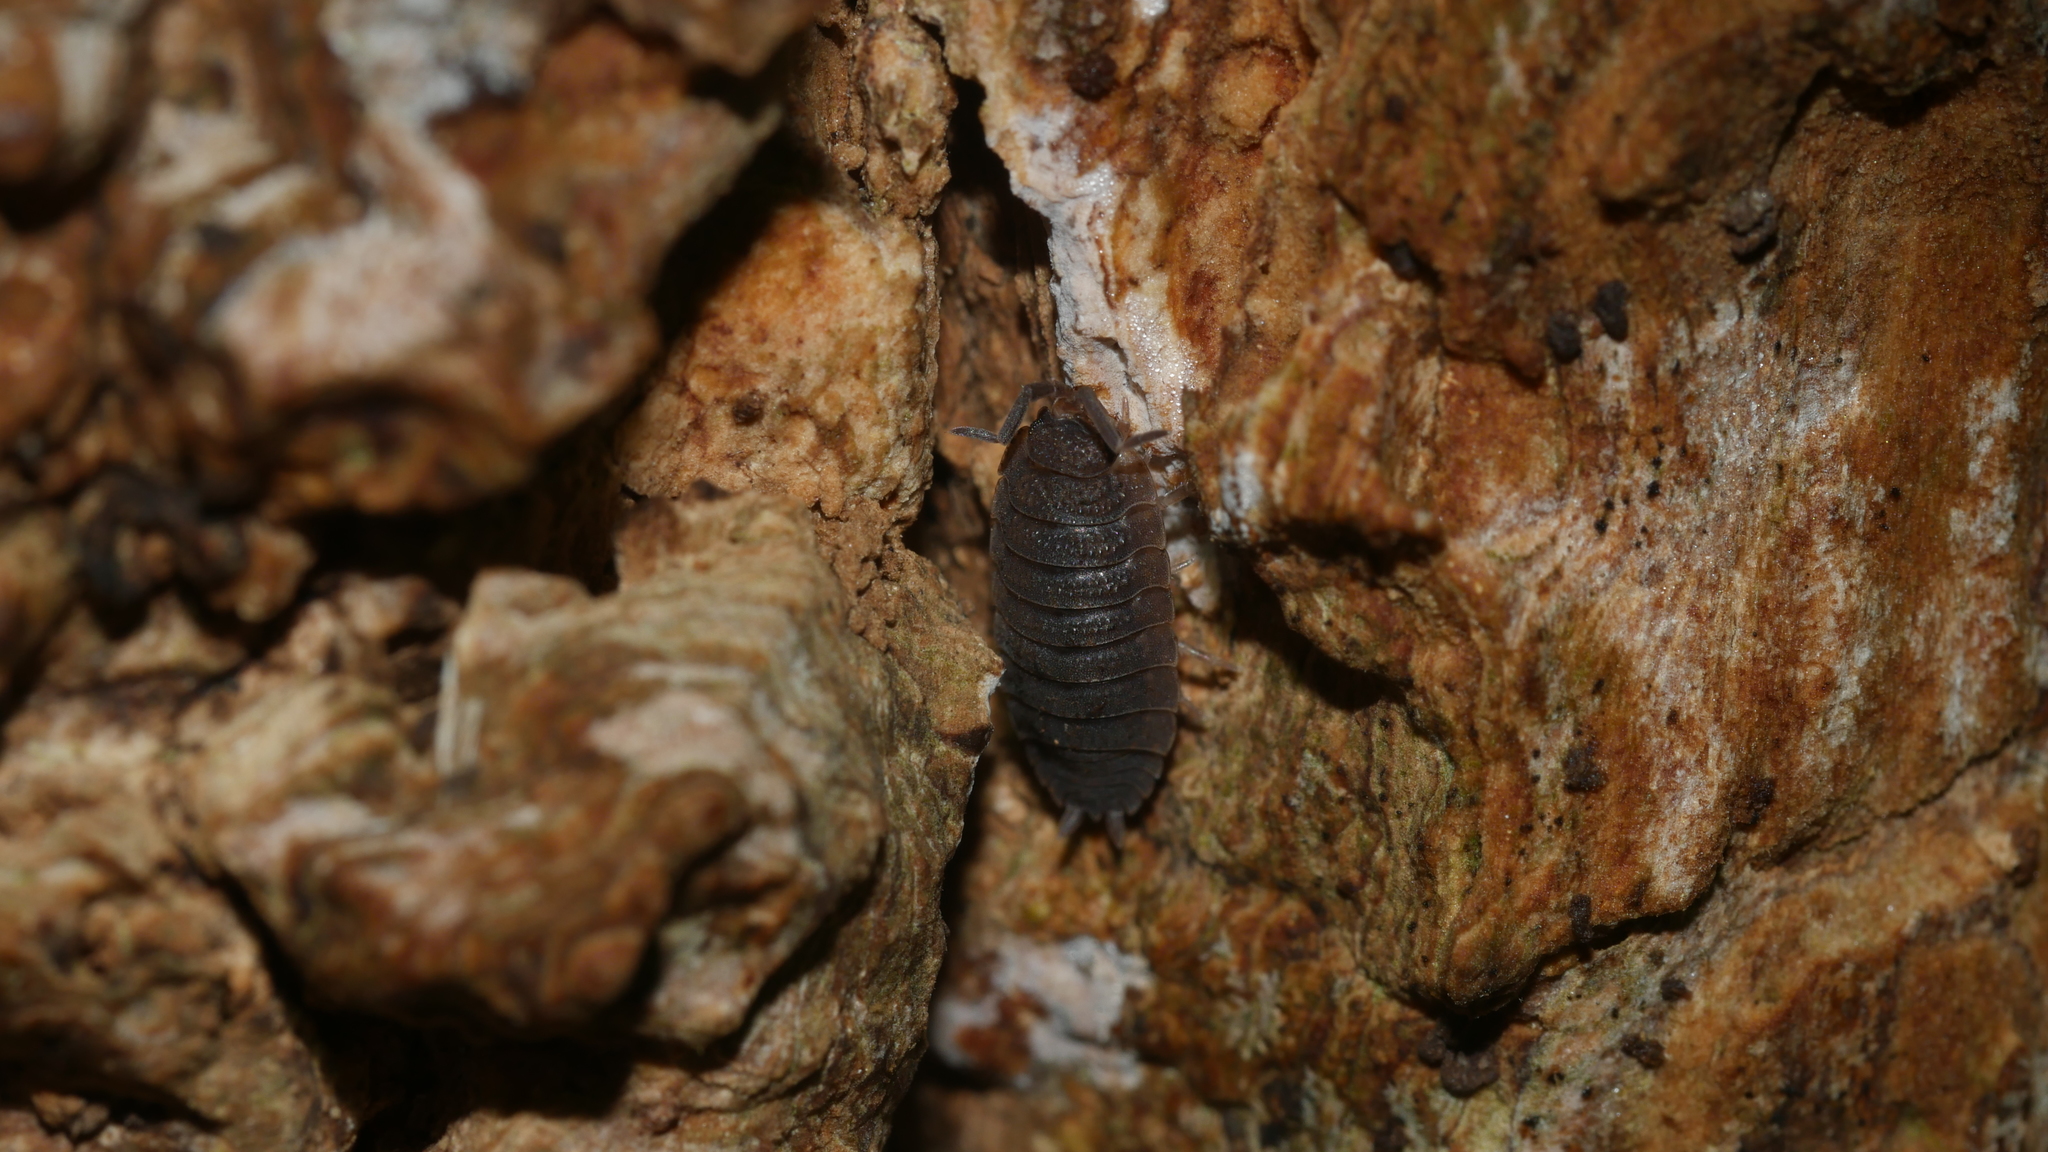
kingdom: Animalia
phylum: Arthropoda
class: Malacostraca
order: Isopoda
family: Porcellionidae
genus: Porcellio
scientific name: Porcellio scaber
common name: Common rough woodlouse
